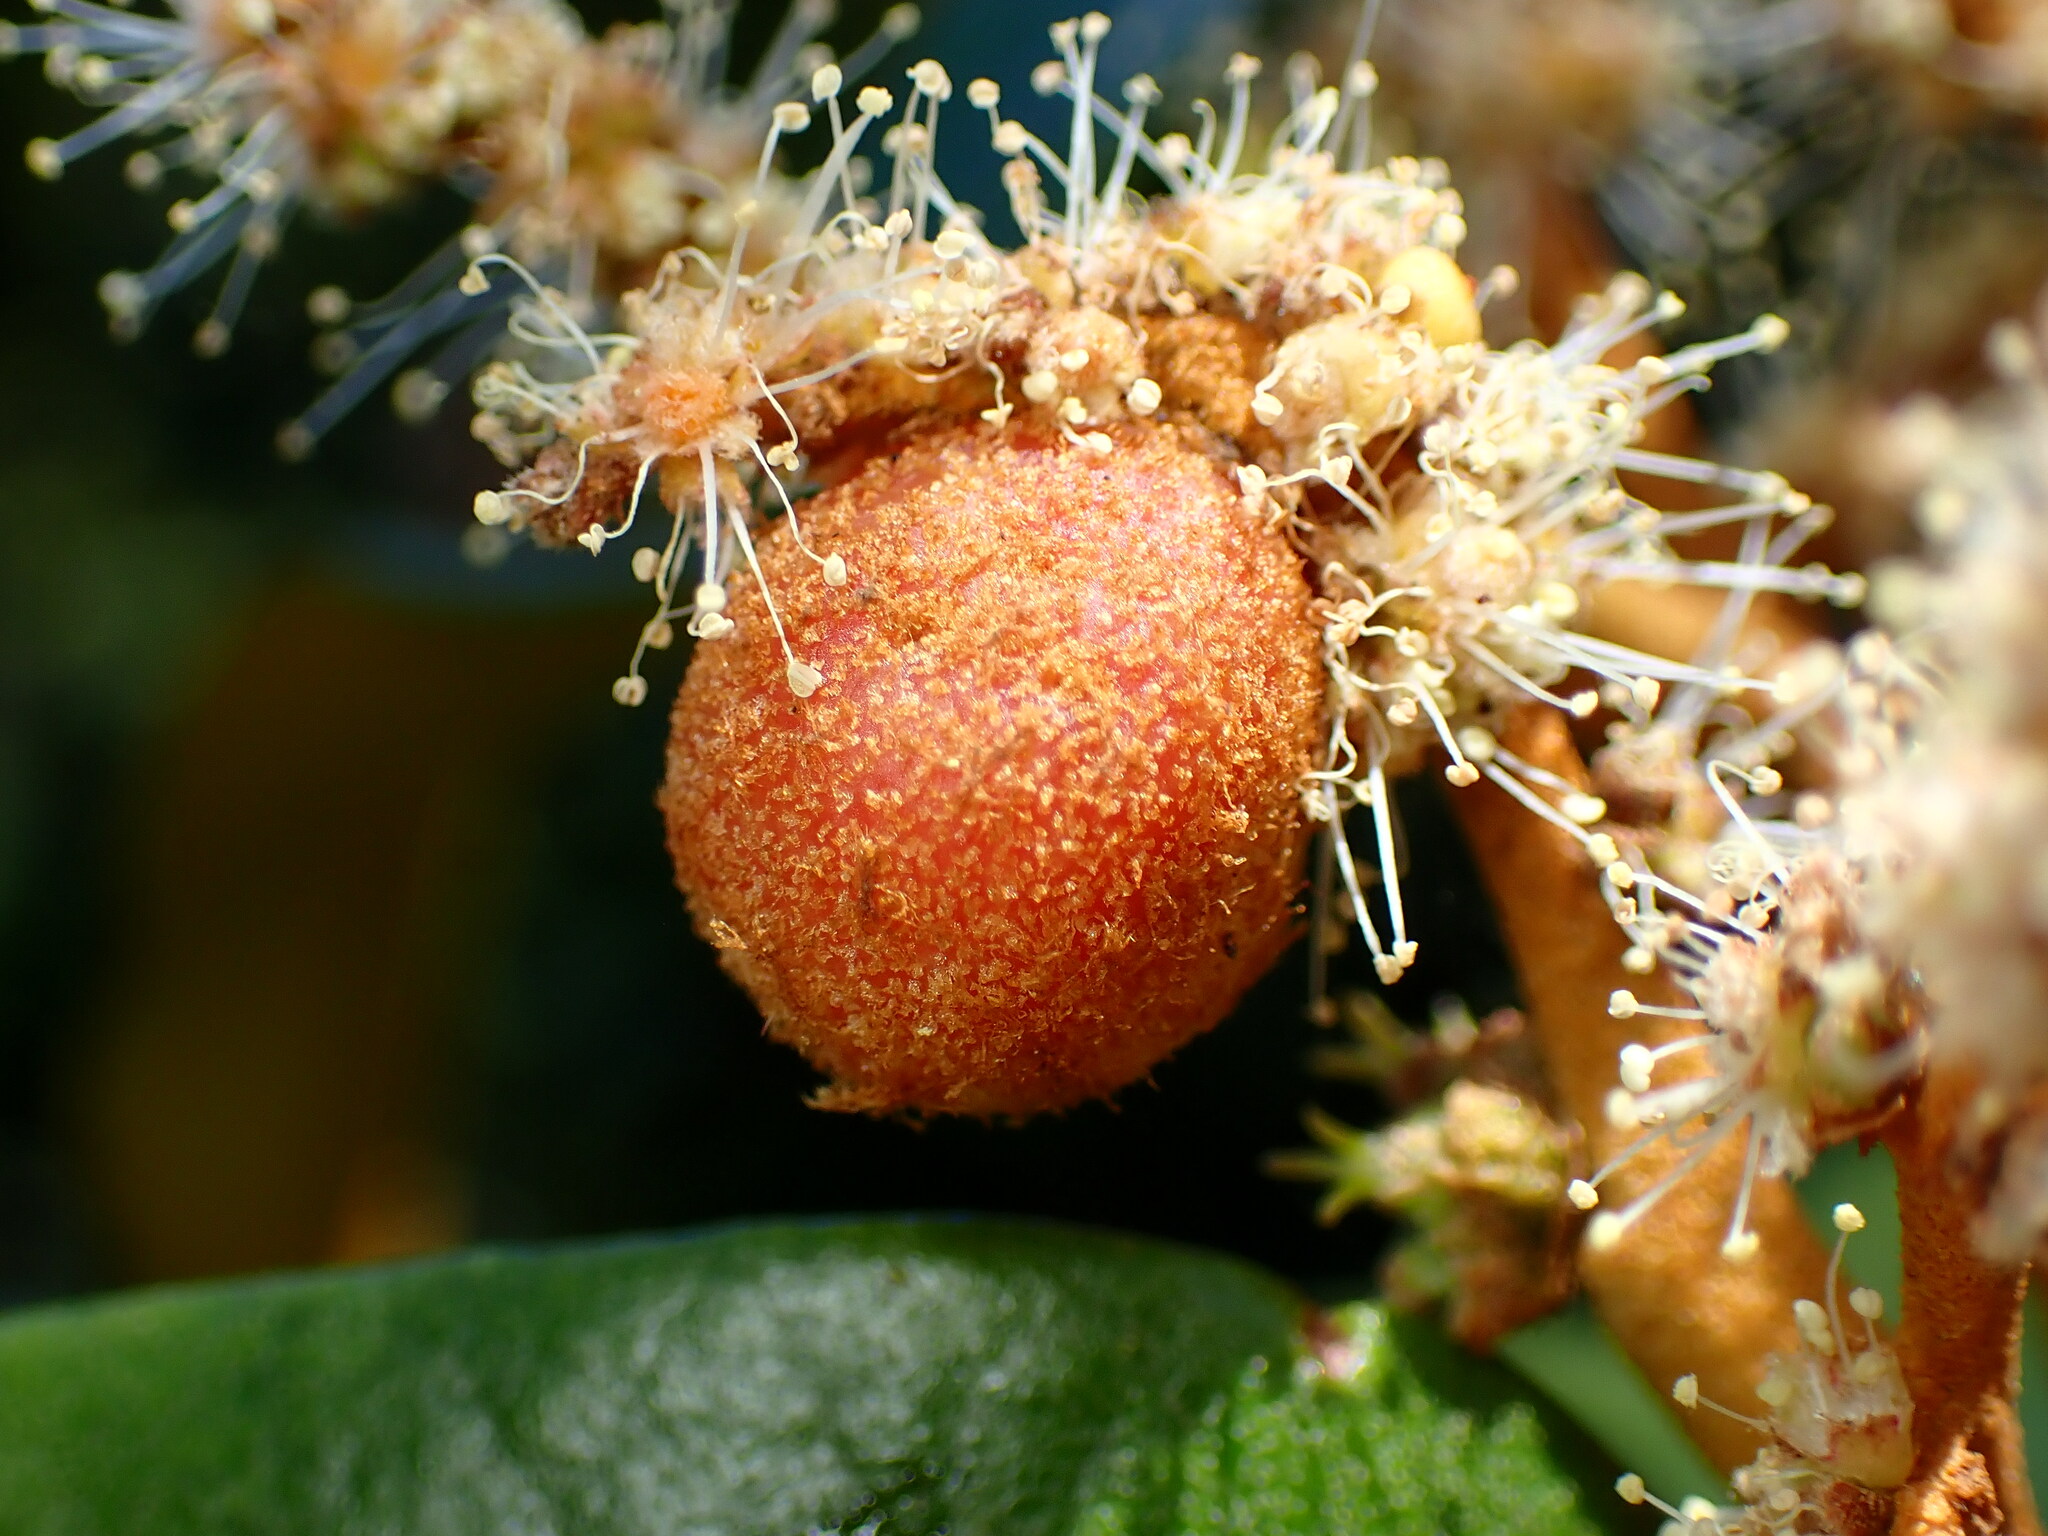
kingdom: Animalia
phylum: Arthropoda
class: Insecta
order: Hymenoptera
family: Cynipidae
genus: Synergus
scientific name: Synergus castanopsidis
